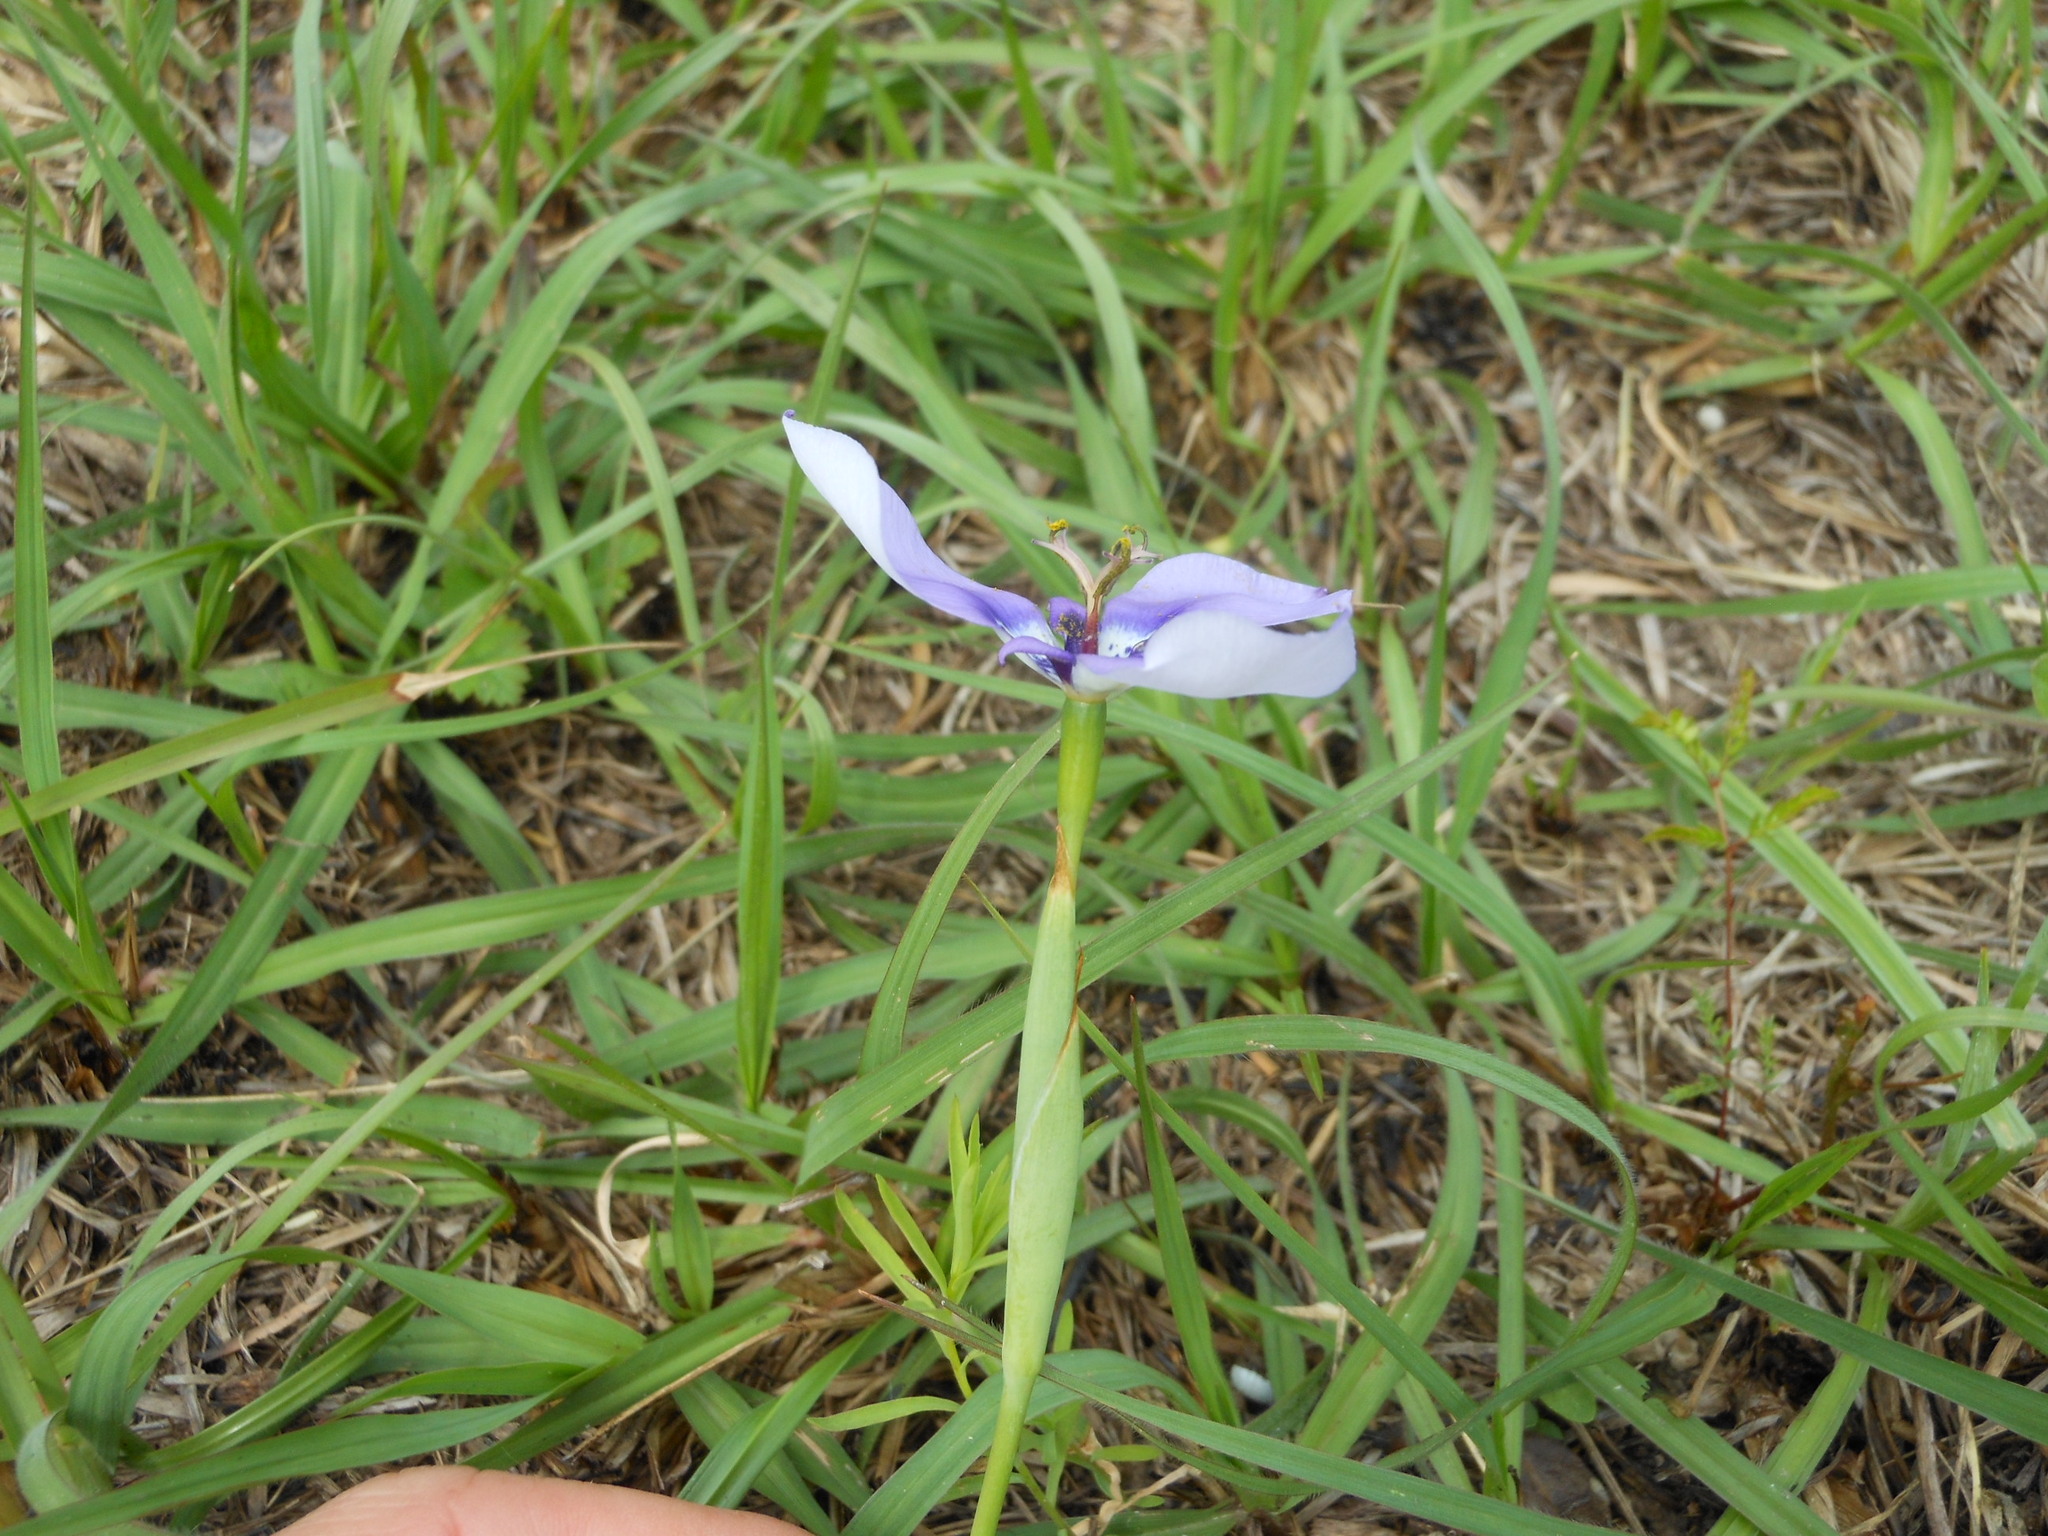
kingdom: Plantae
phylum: Tracheophyta
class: Liliopsida
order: Asparagales
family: Iridaceae
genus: Herbertia
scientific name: Herbertia lahue
